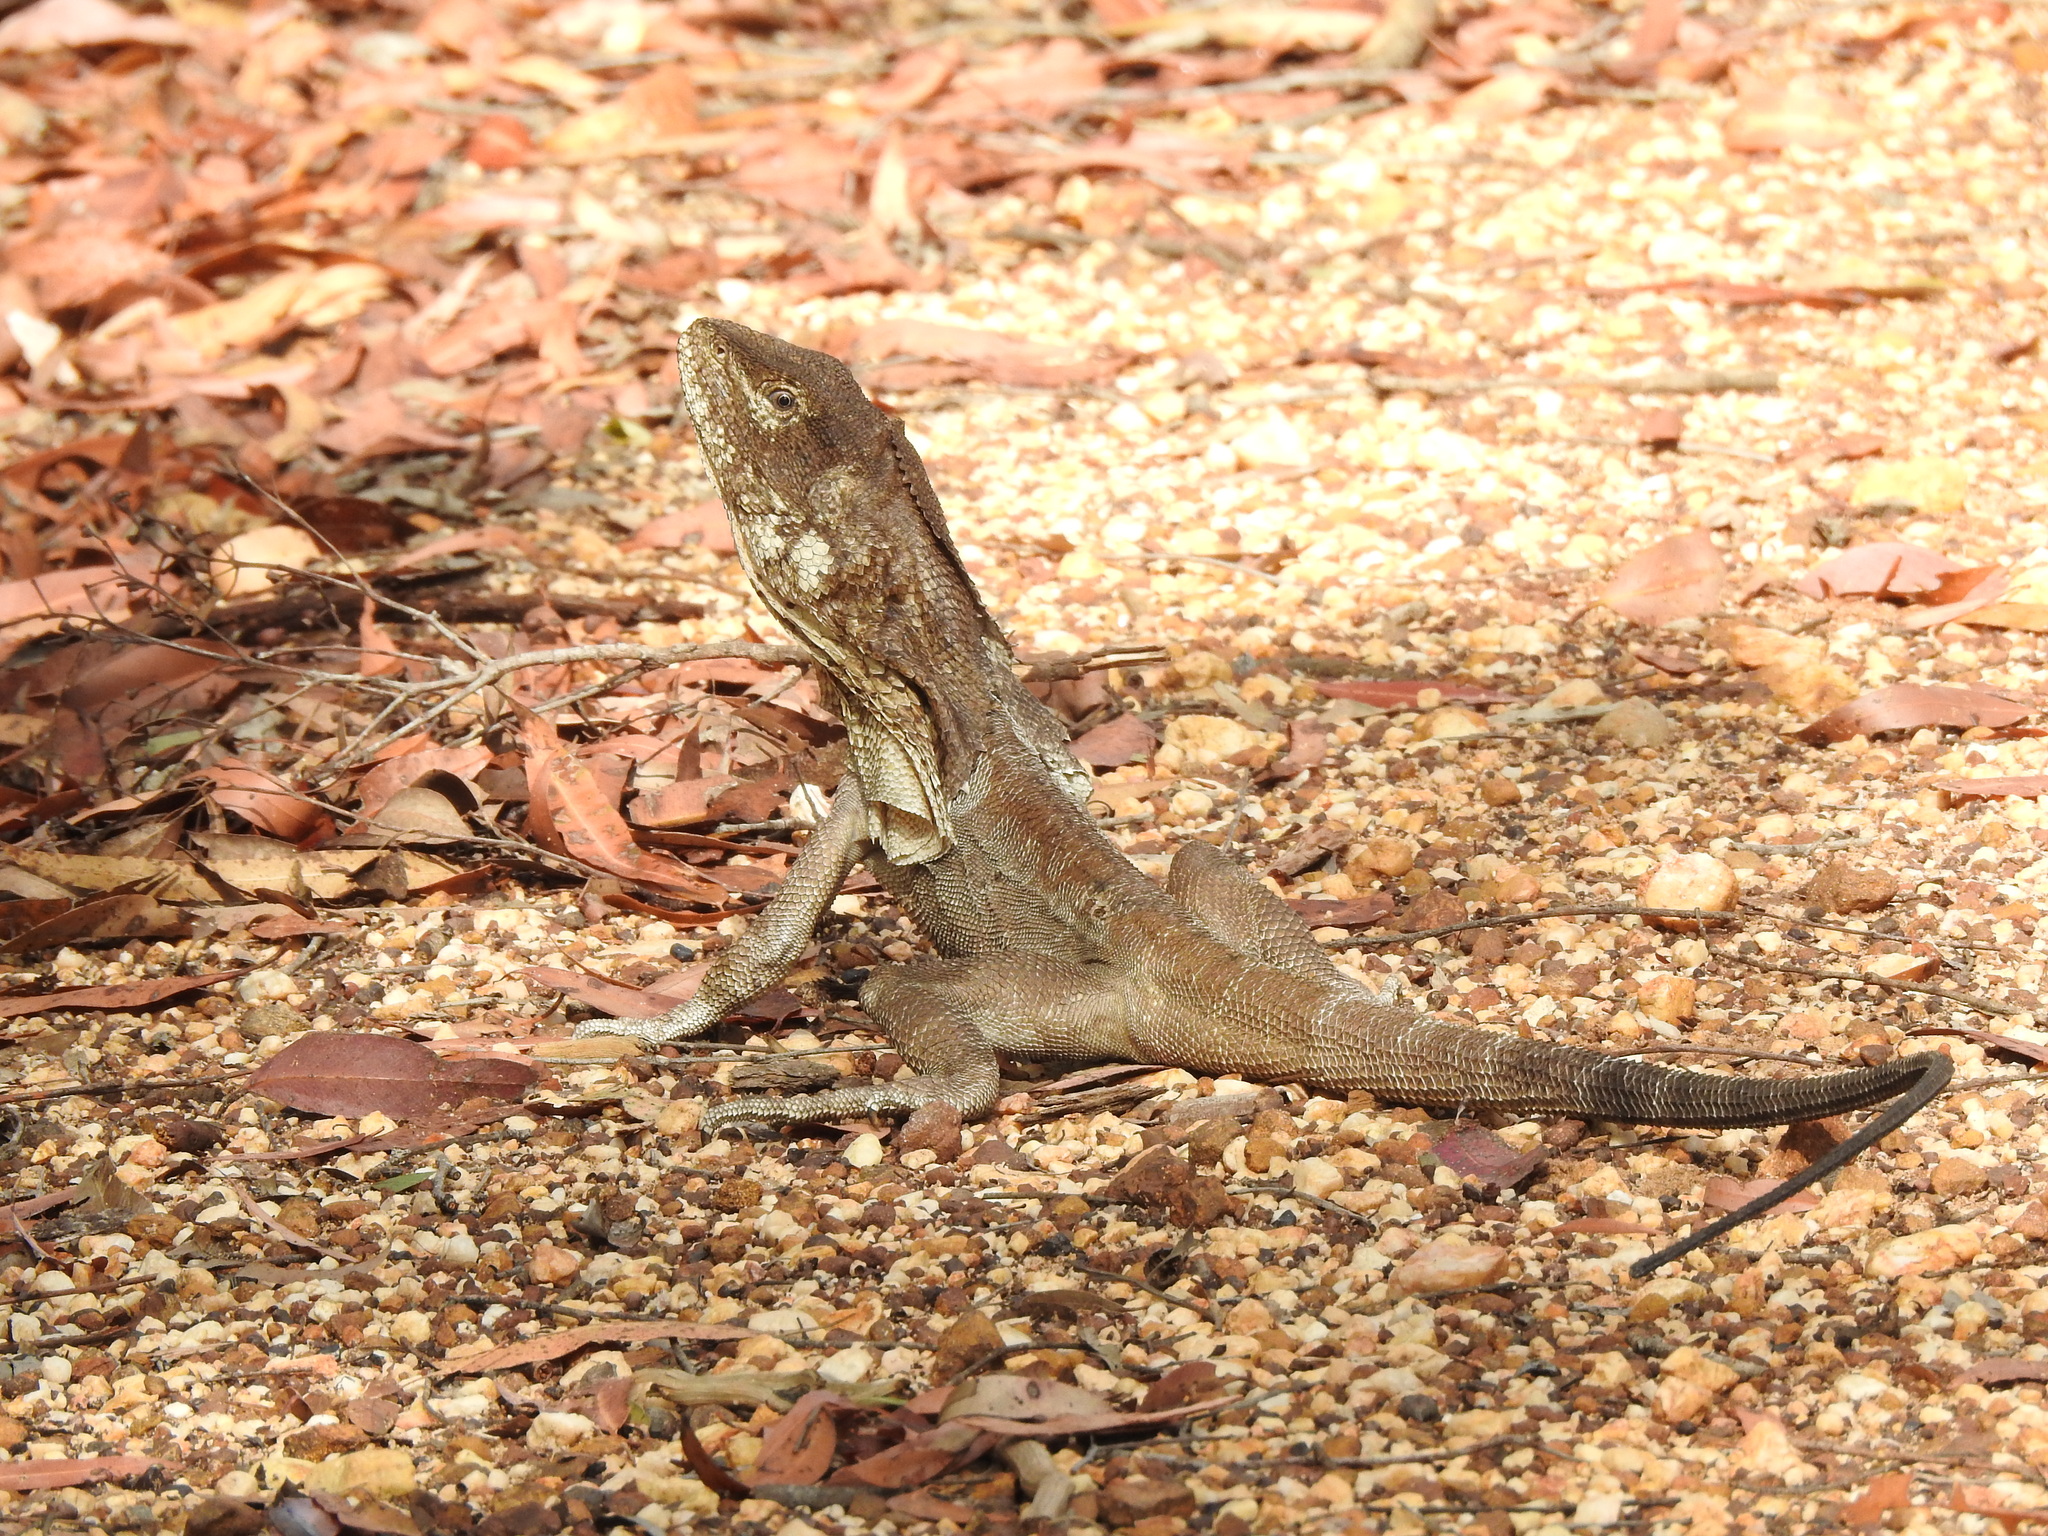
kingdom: Animalia
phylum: Chordata
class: Squamata
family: Agamidae
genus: Chlamydosaurus
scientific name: Chlamydosaurus kingii
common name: Frilled lizard
